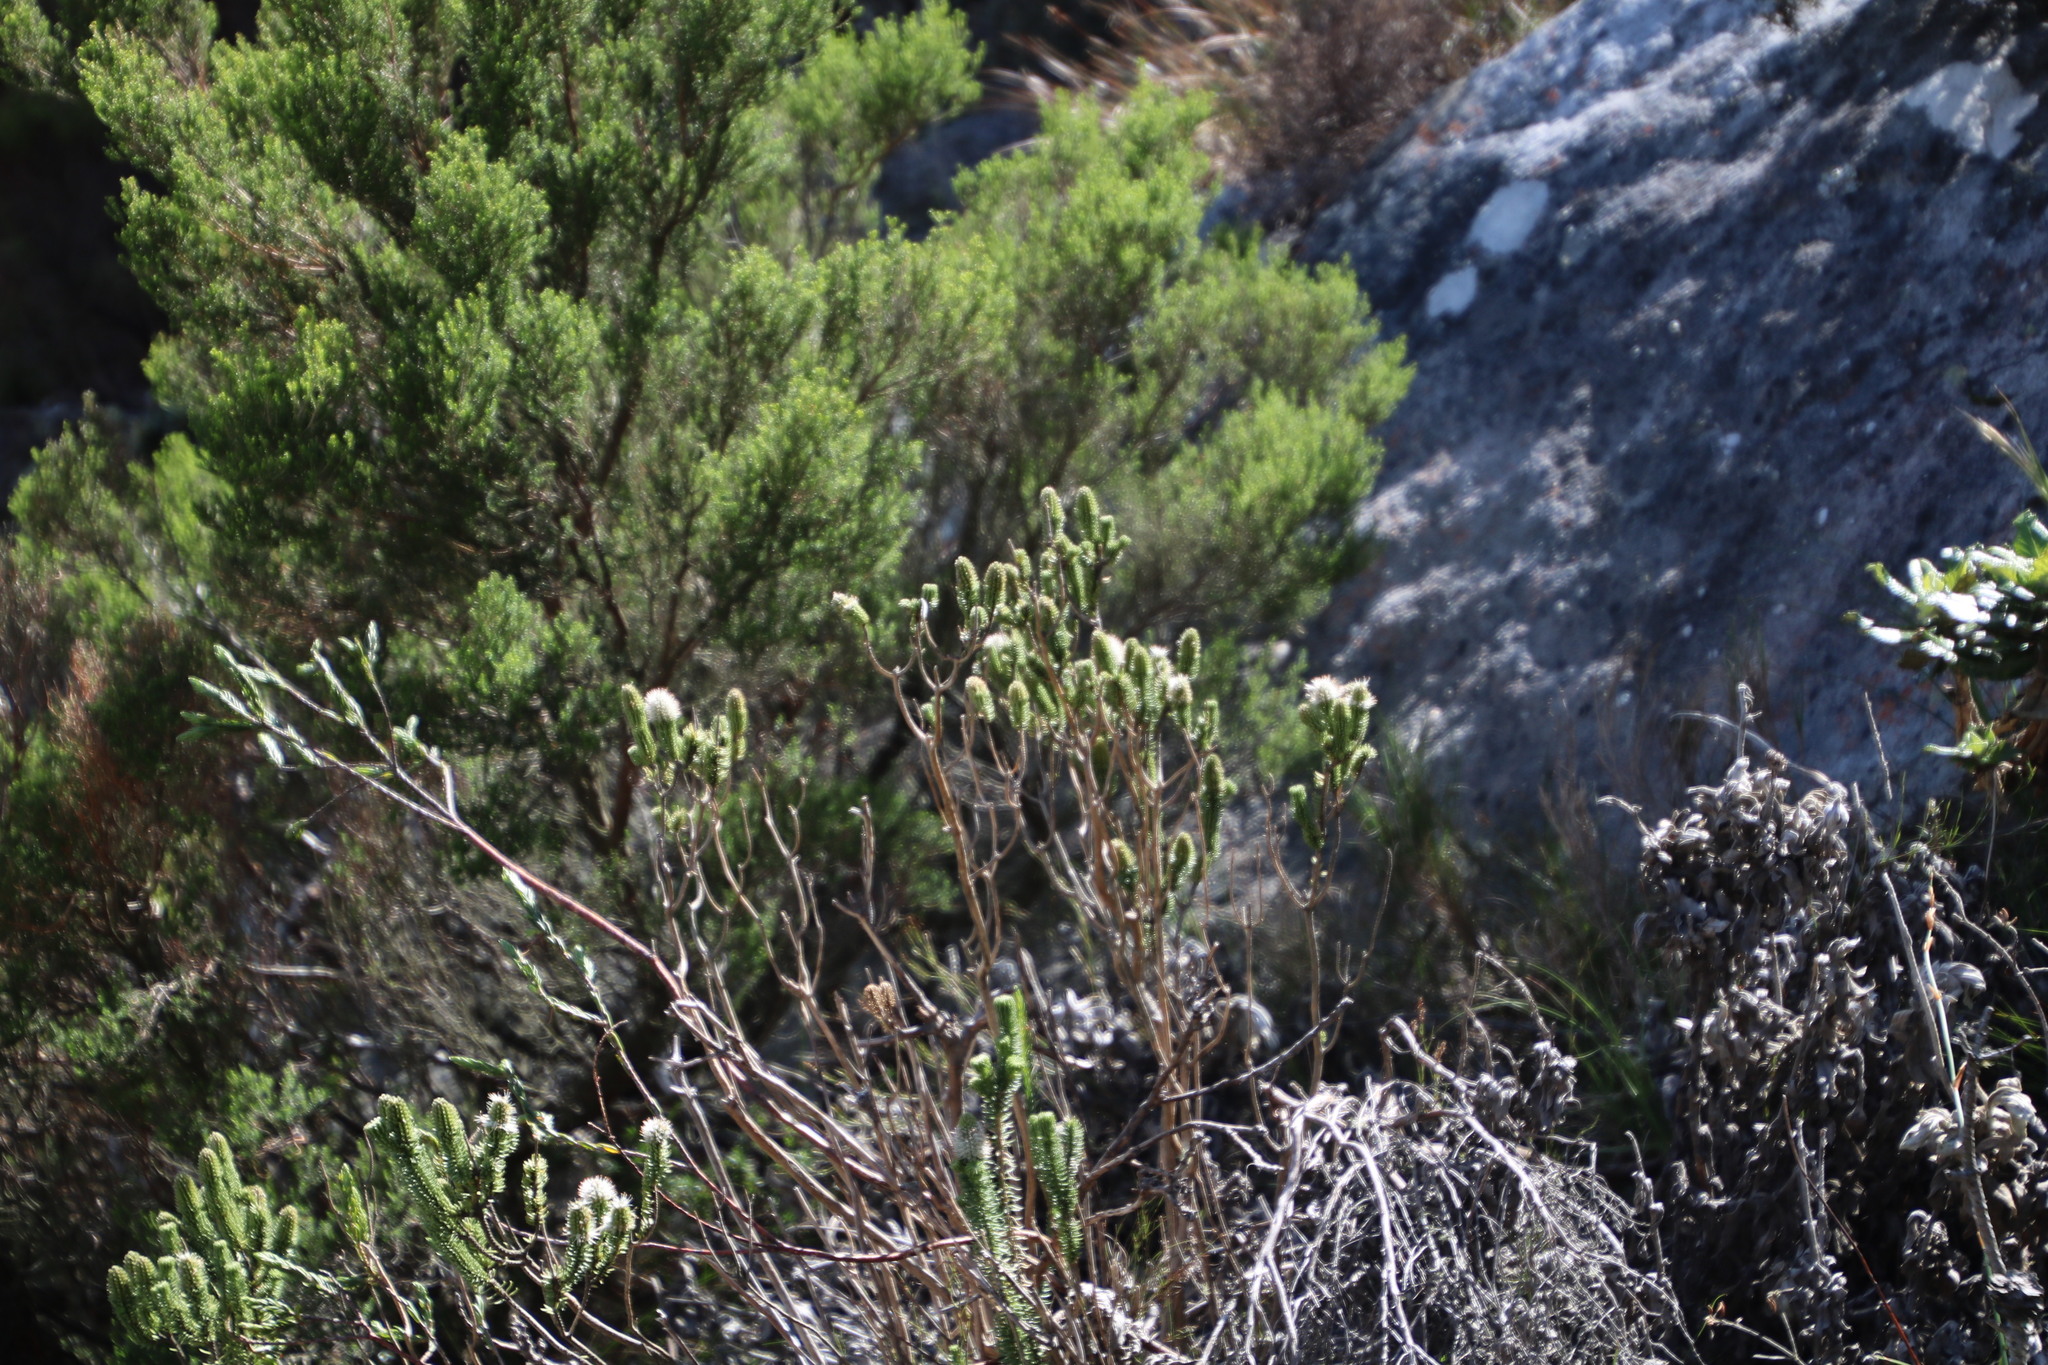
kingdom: Plantae
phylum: Tracheophyta
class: Magnoliopsida
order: Lamiales
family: Stilbaceae
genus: Stilbe
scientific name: Stilbe vestita
